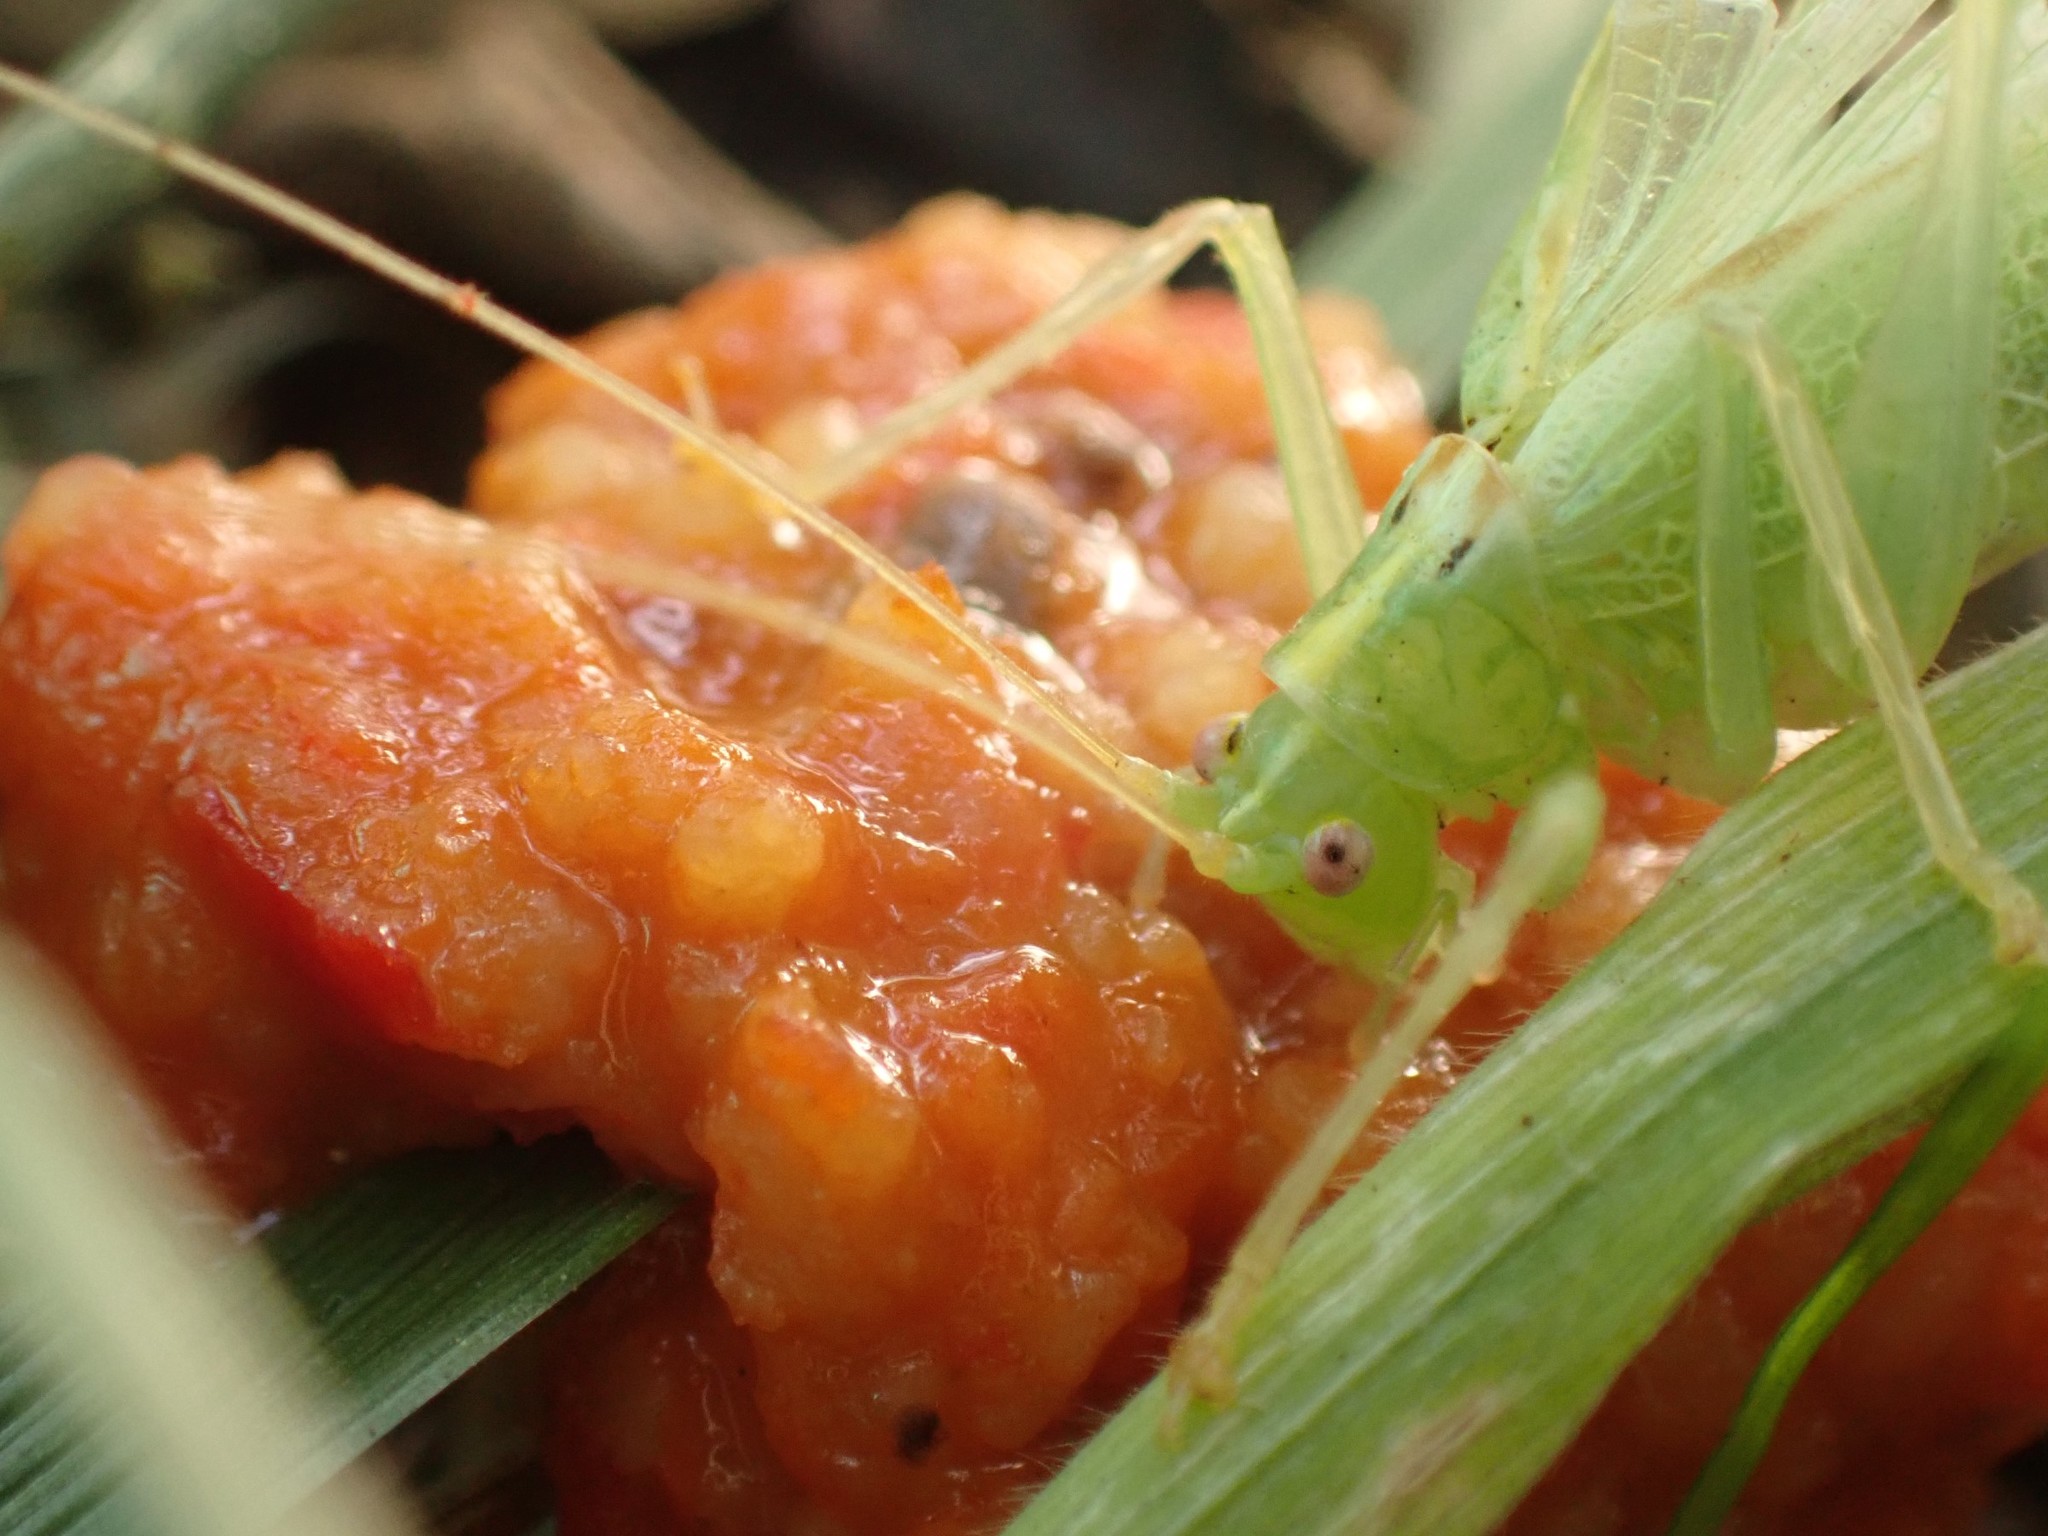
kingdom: Animalia
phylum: Arthropoda
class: Insecta
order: Orthoptera
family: Tettigoniidae
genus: Meconema
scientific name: Meconema thalassinum
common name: Oak bush-cricket
